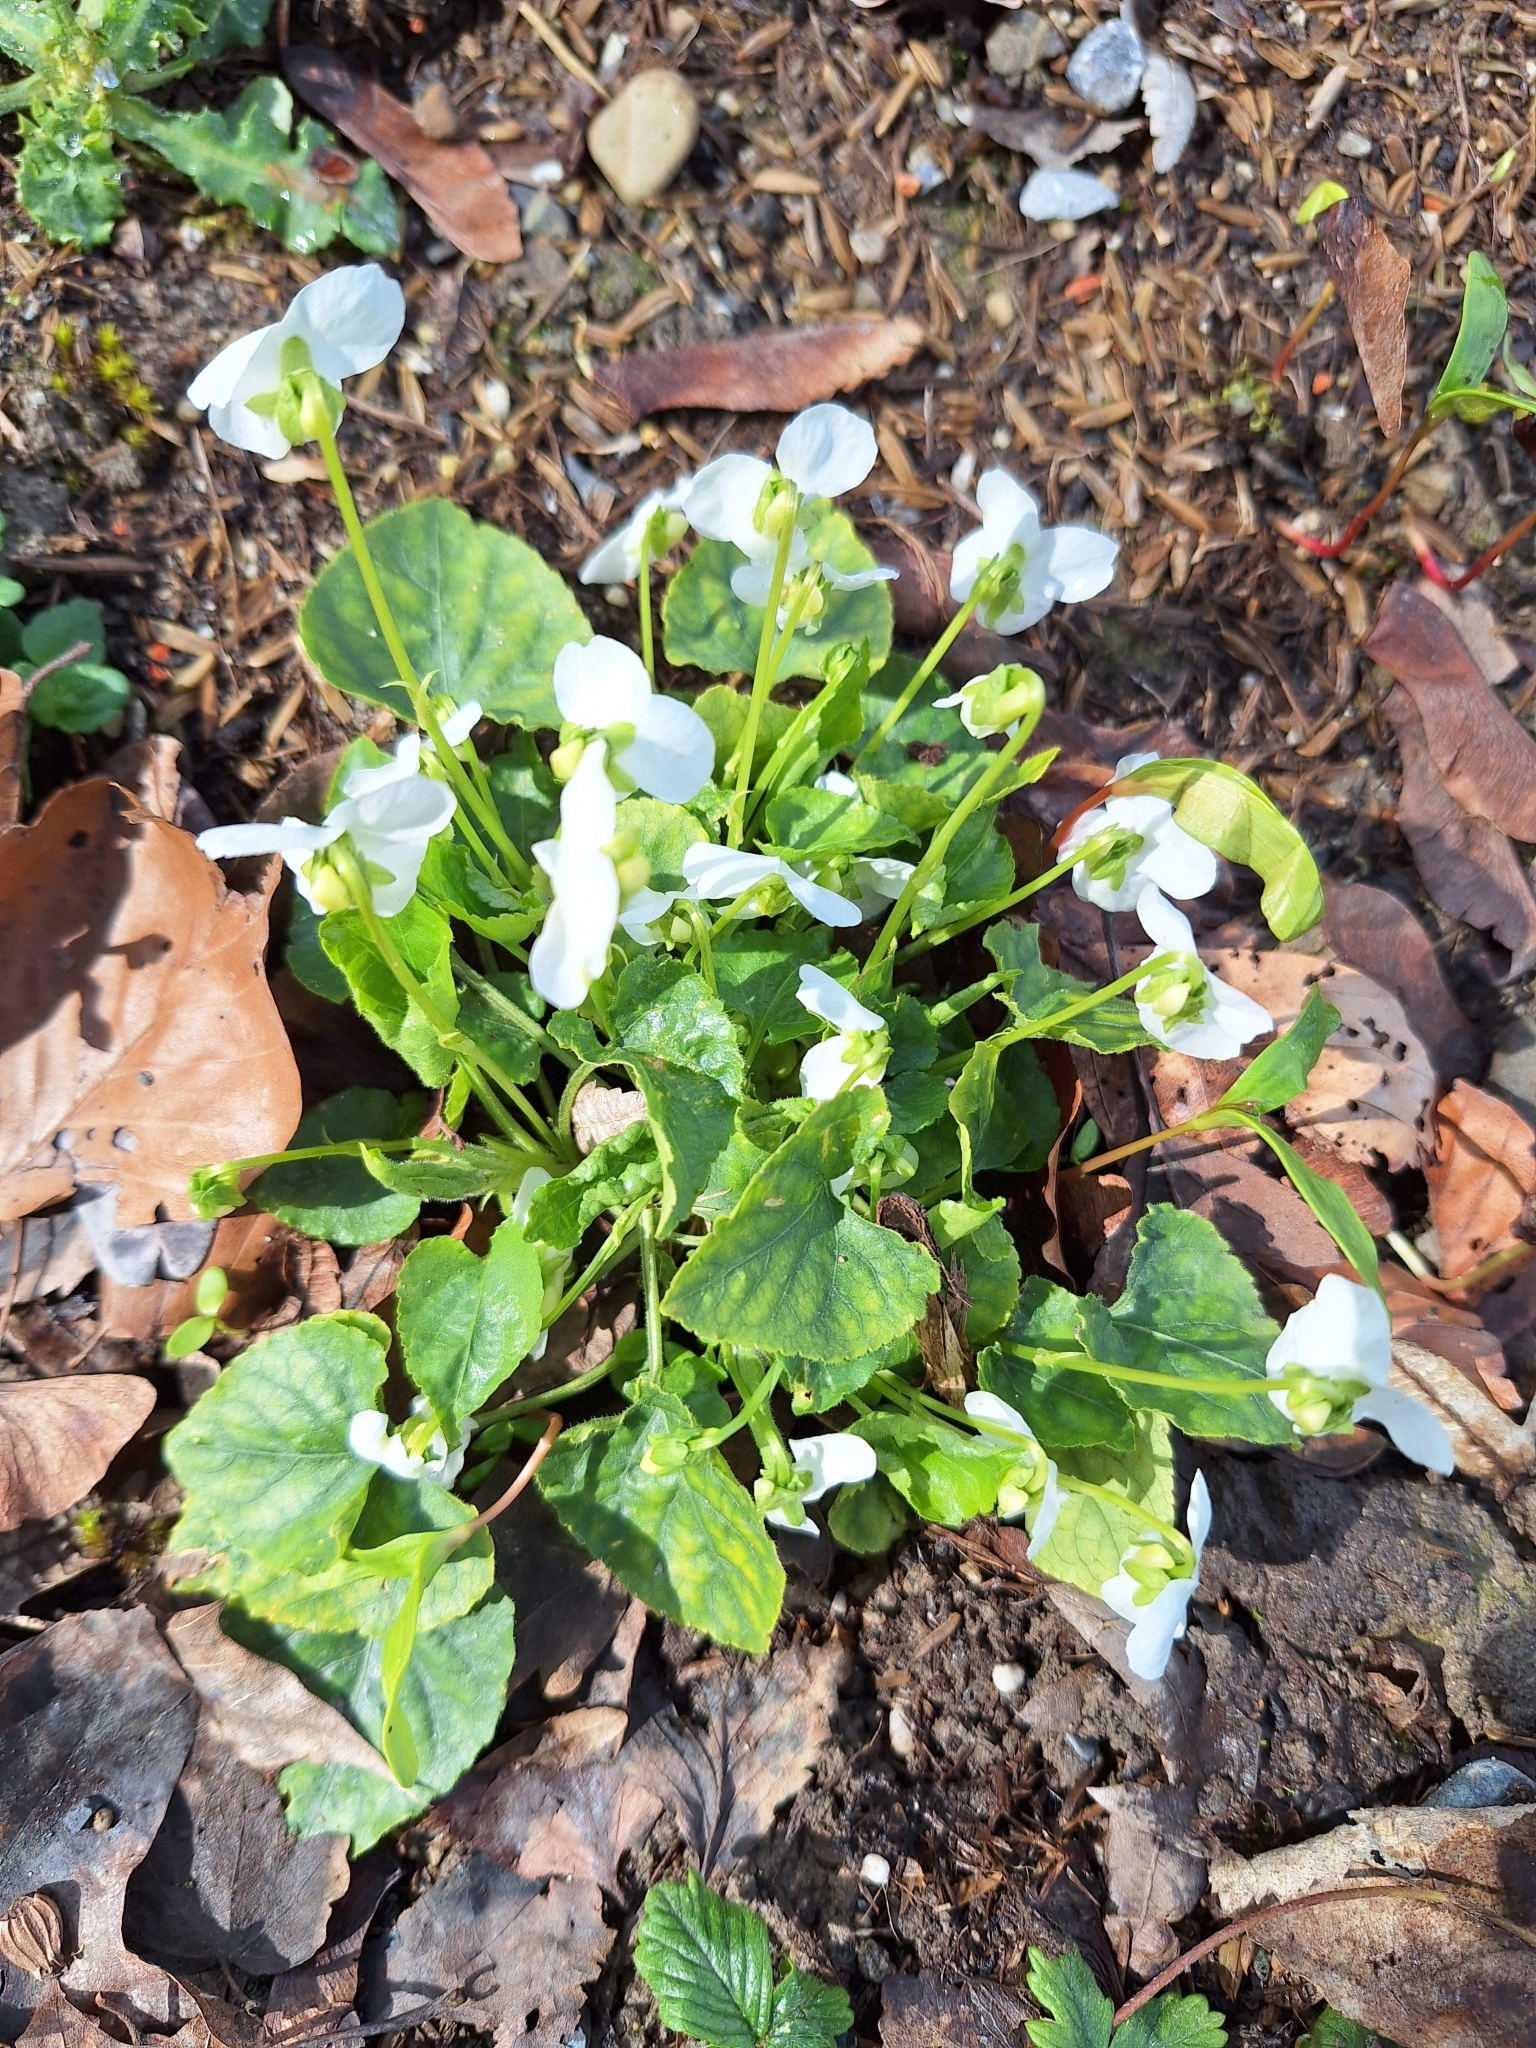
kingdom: Plantae
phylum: Tracheophyta
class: Magnoliopsida
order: Malpighiales
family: Violaceae
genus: Viola
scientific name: Viola alba
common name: White violet
